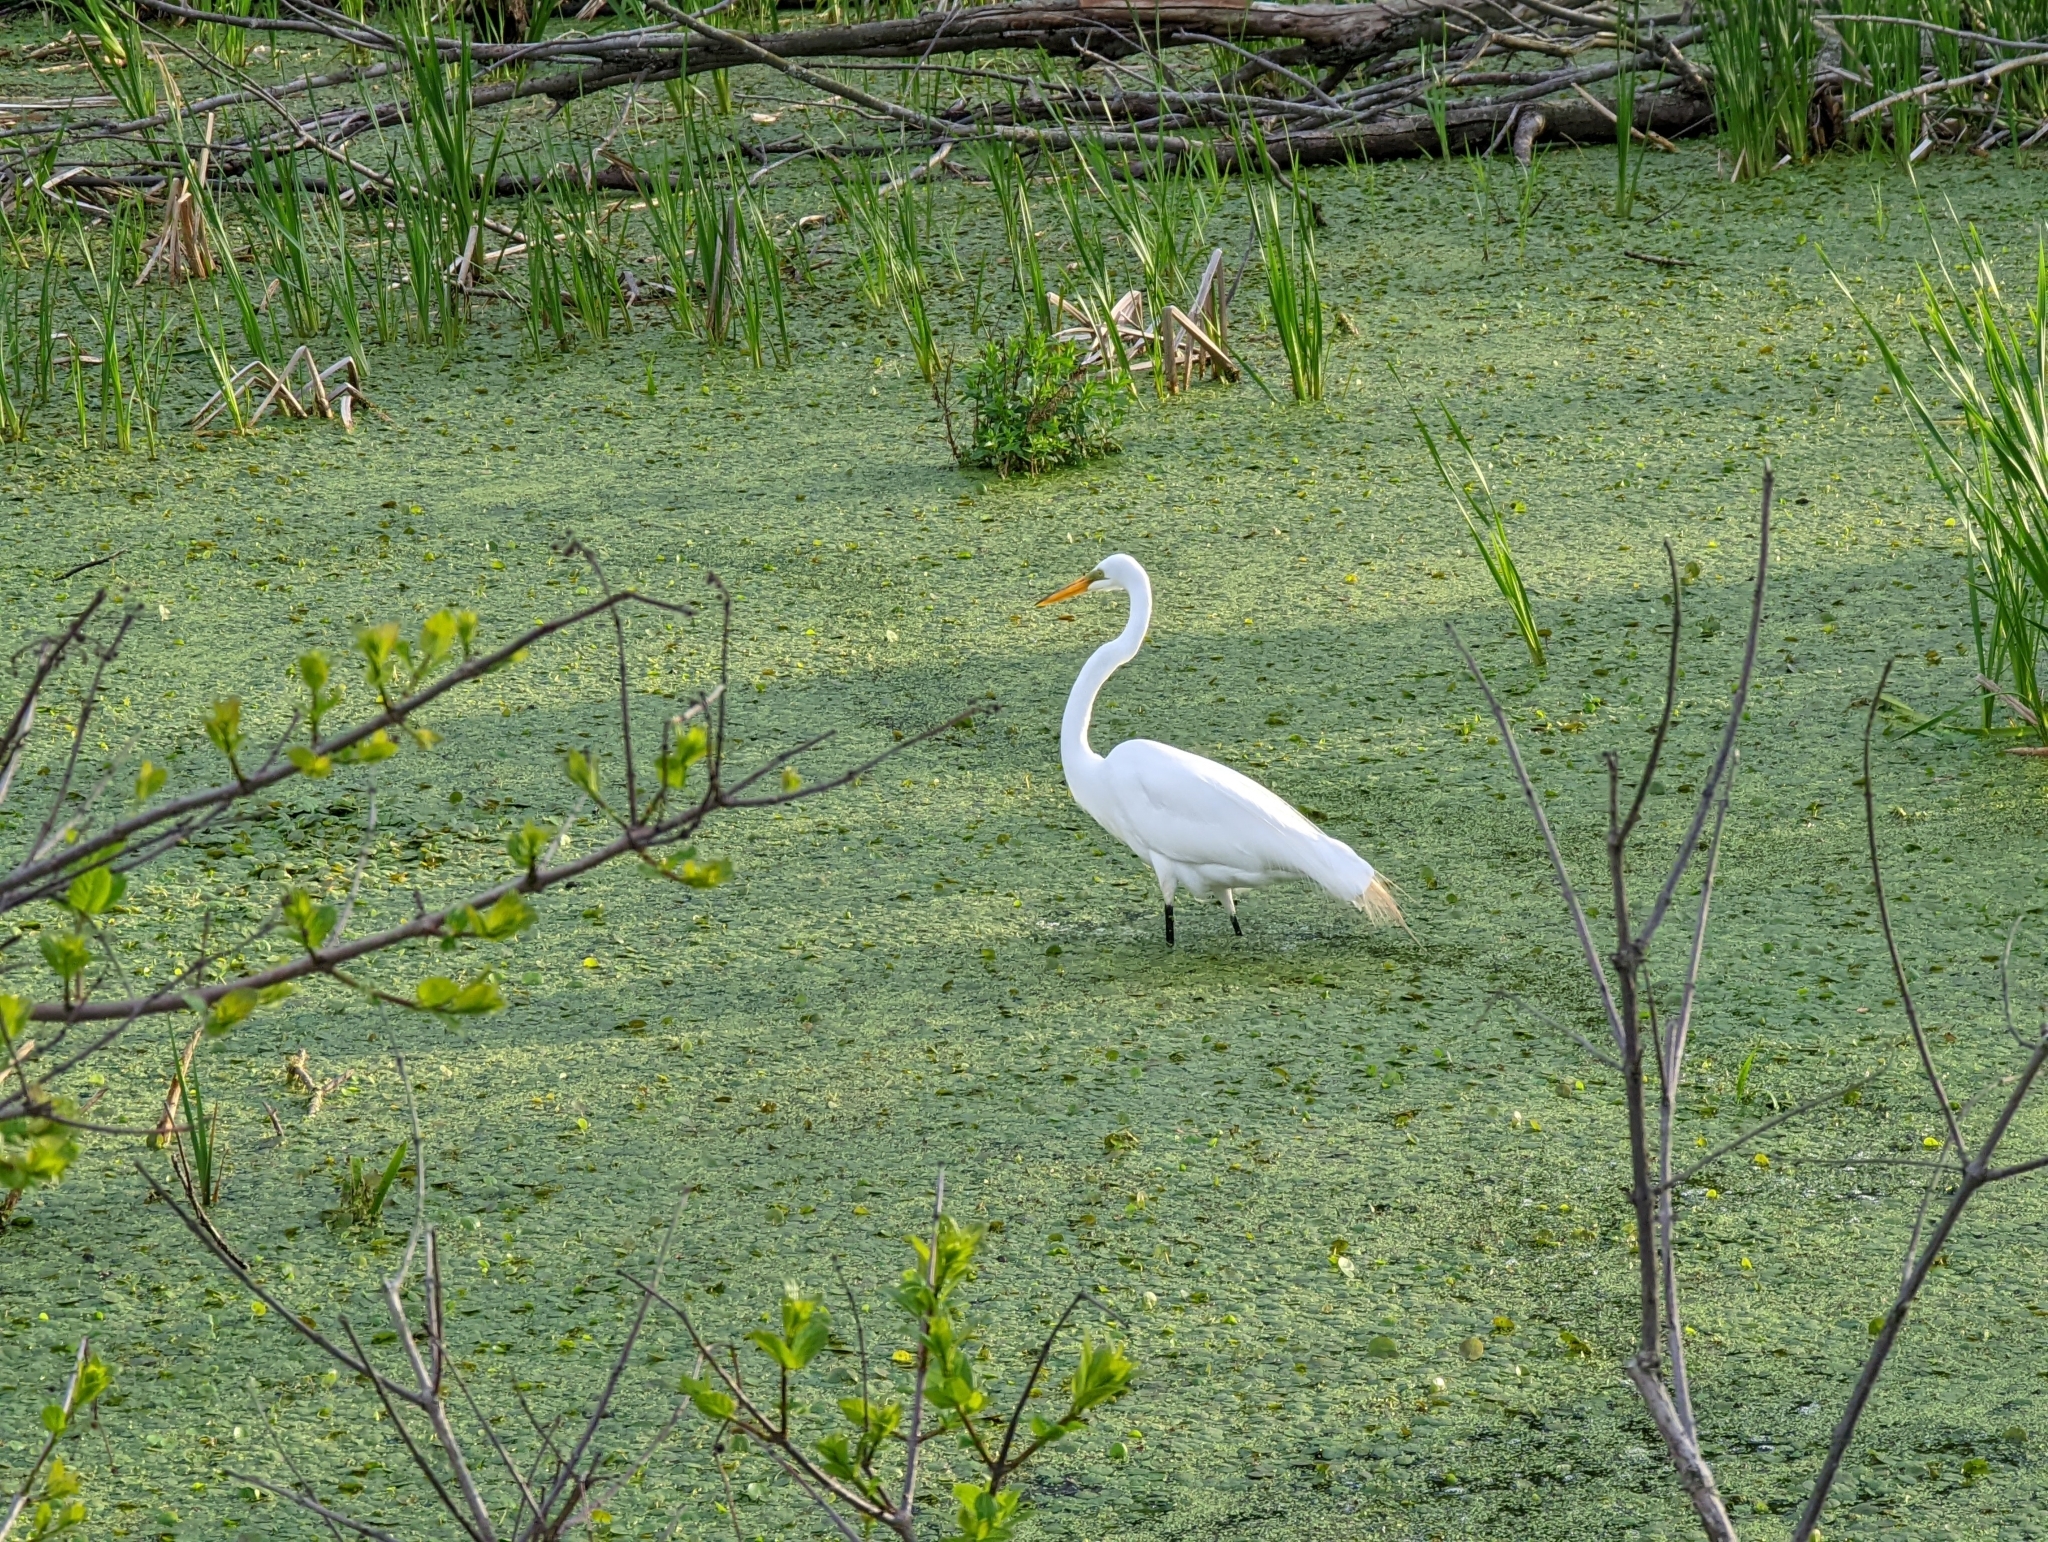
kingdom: Animalia
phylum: Chordata
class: Aves
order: Pelecaniformes
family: Ardeidae
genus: Ardea
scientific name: Ardea alba
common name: Great egret
